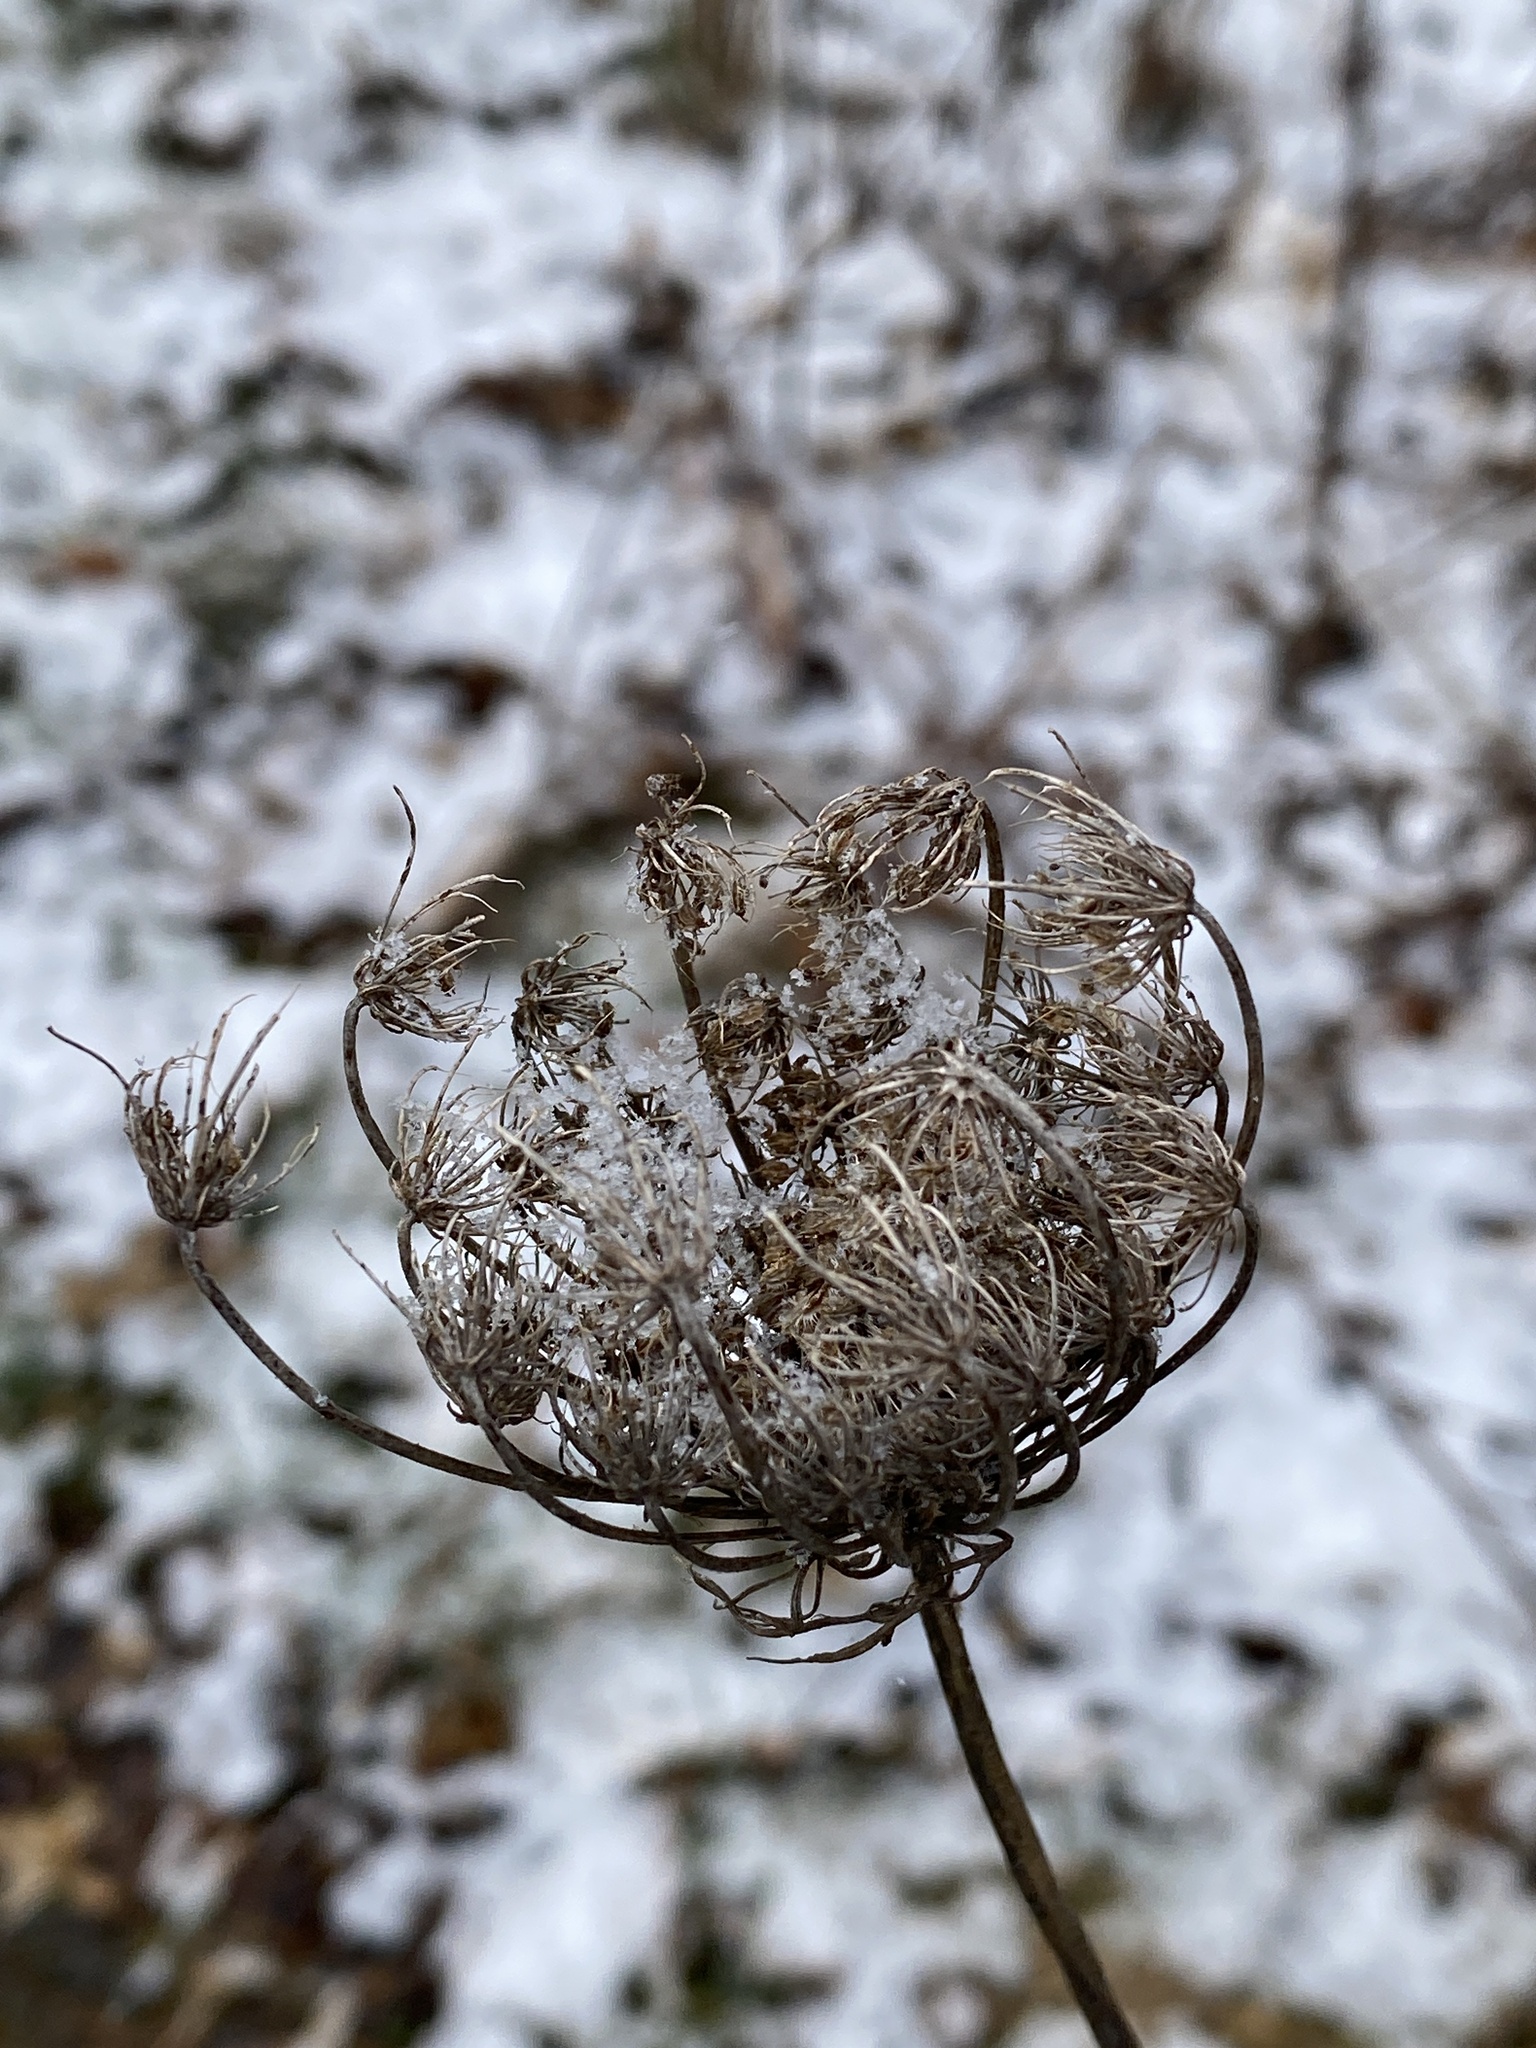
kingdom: Plantae
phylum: Tracheophyta
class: Magnoliopsida
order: Apiales
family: Apiaceae
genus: Daucus
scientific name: Daucus carota
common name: Wild carrot
